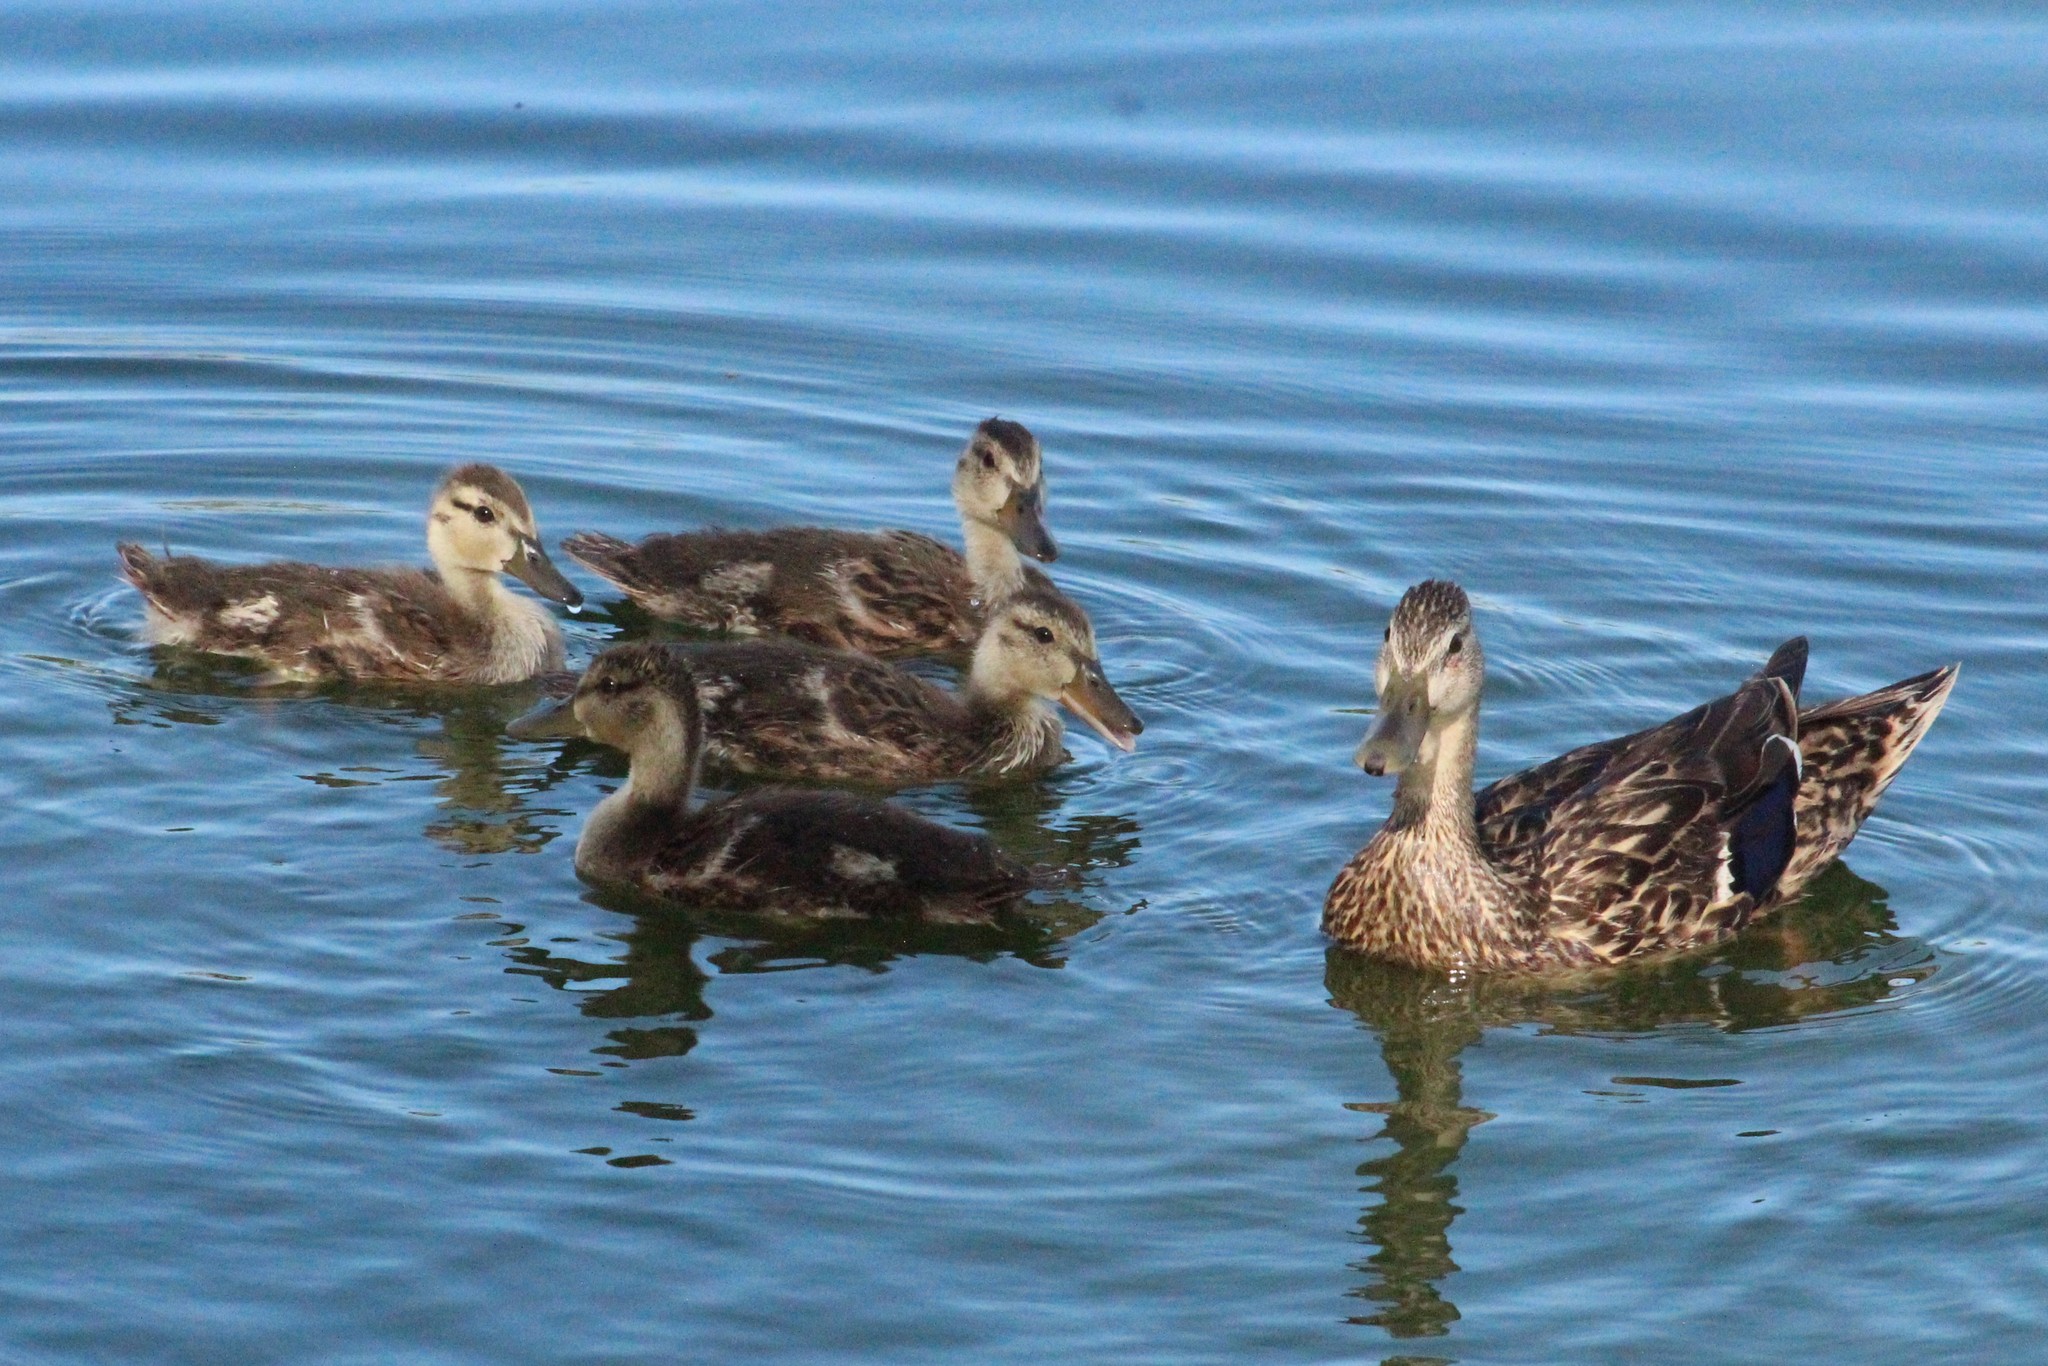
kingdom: Animalia
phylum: Chordata
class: Aves
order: Anseriformes
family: Anatidae
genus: Anas
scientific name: Anas diazi
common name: Mexican duck
